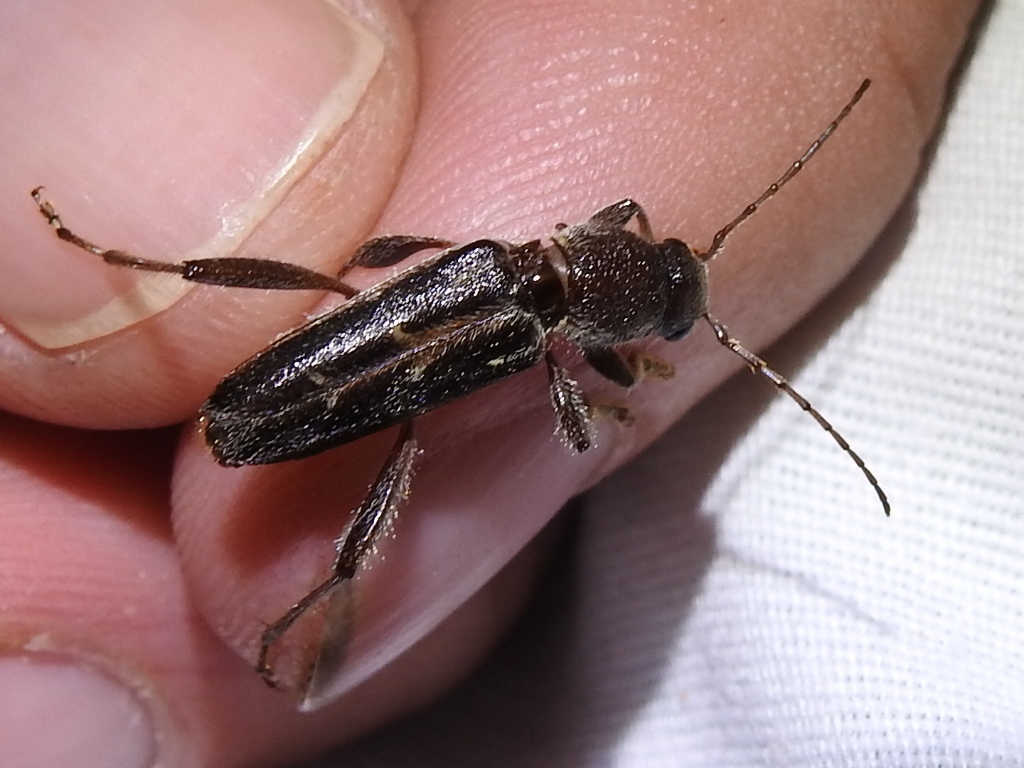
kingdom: Animalia
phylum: Arthropoda
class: Insecta
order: Coleoptera
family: Cerambycidae
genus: Xylotrechus
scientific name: Xylotrechus sagittatus
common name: Arrowhead borer
